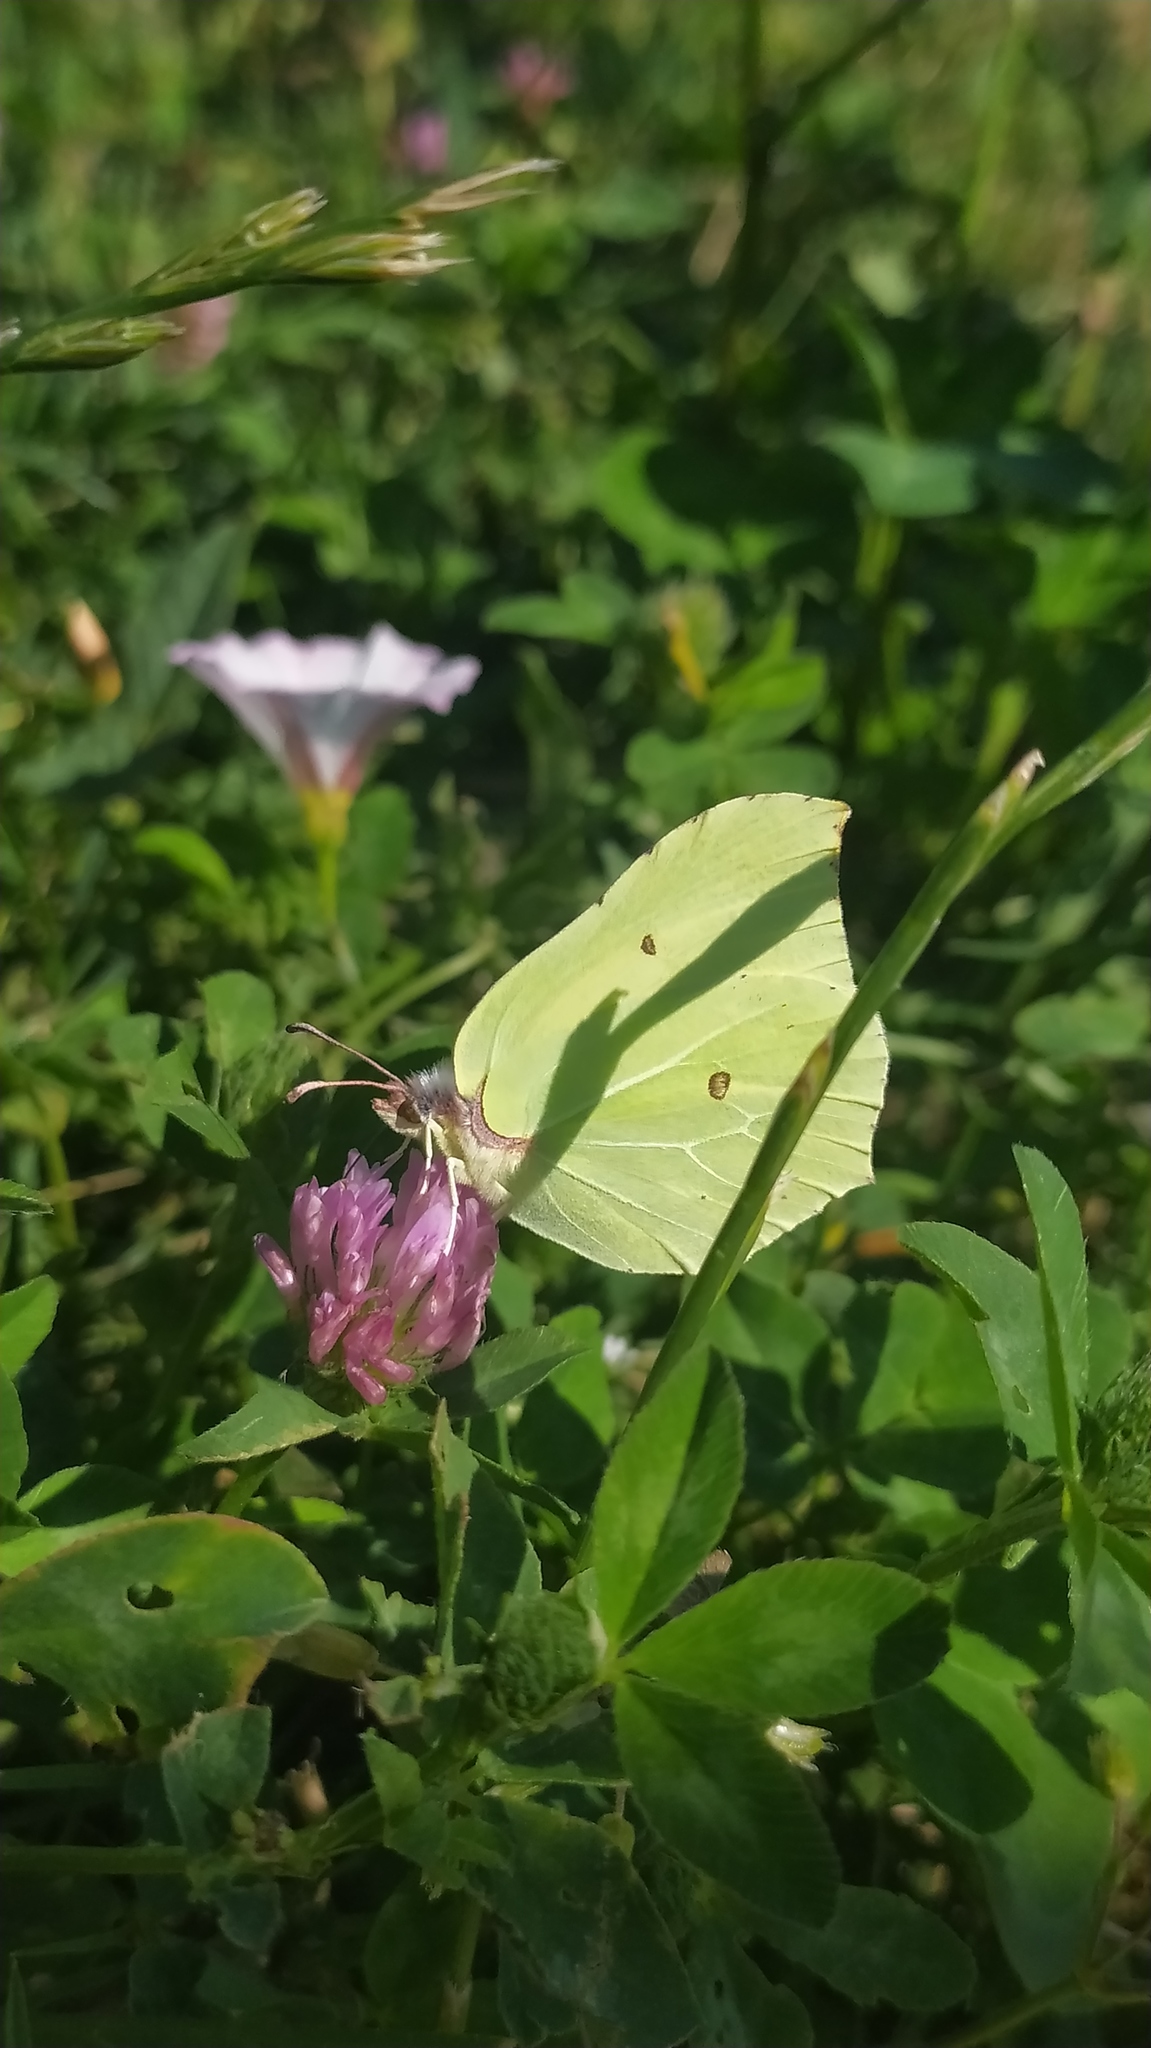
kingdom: Animalia
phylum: Arthropoda
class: Insecta
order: Lepidoptera
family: Pieridae
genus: Gonepteryx
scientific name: Gonepteryx rhamni
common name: Brimstone
